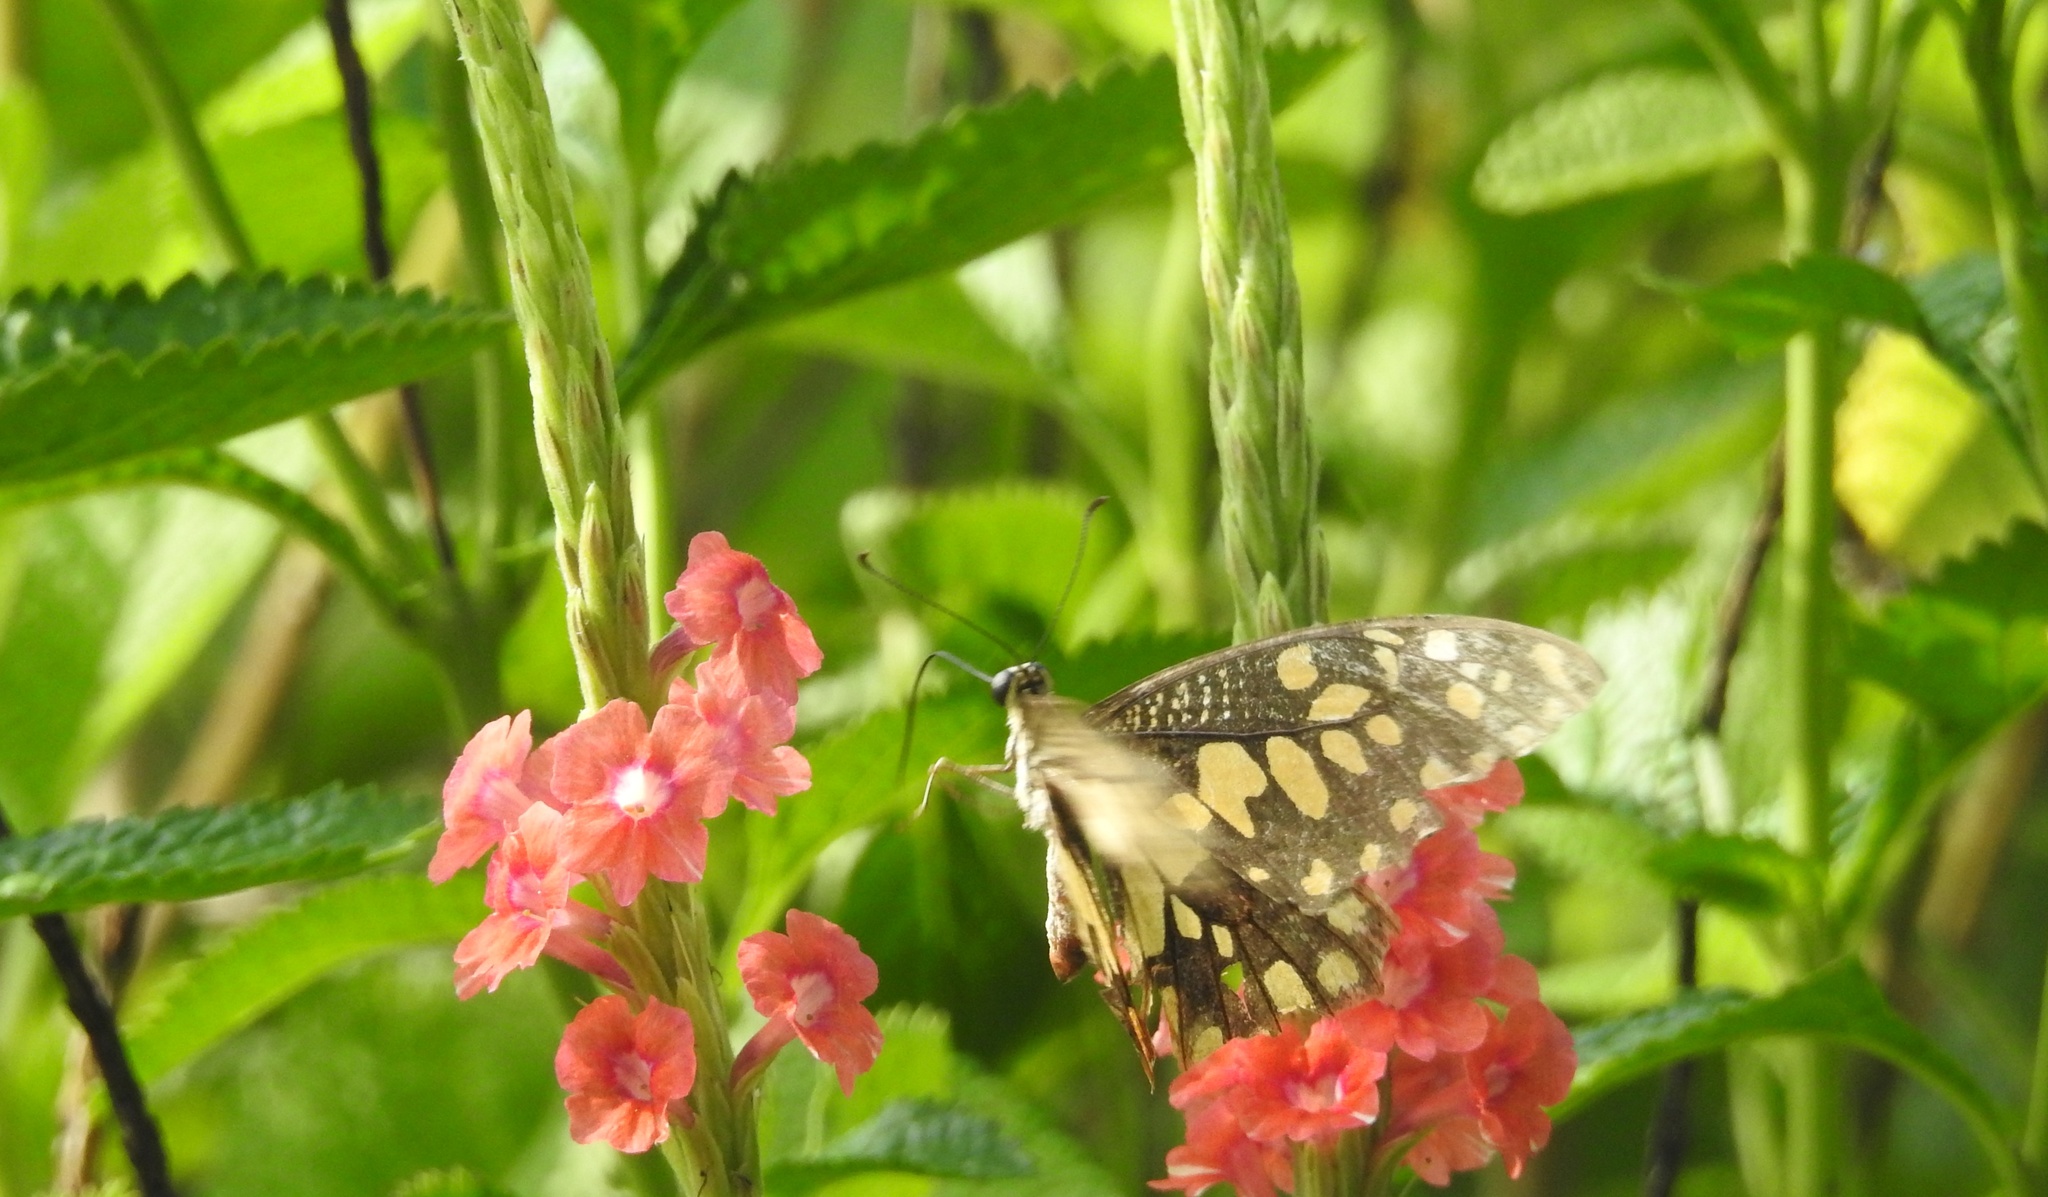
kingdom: Animalia
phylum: Arthropoda
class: Insecta
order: Lepidoptera
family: Papilionidae
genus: Papilio
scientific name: Papilio demoleus
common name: Lime butterfly
